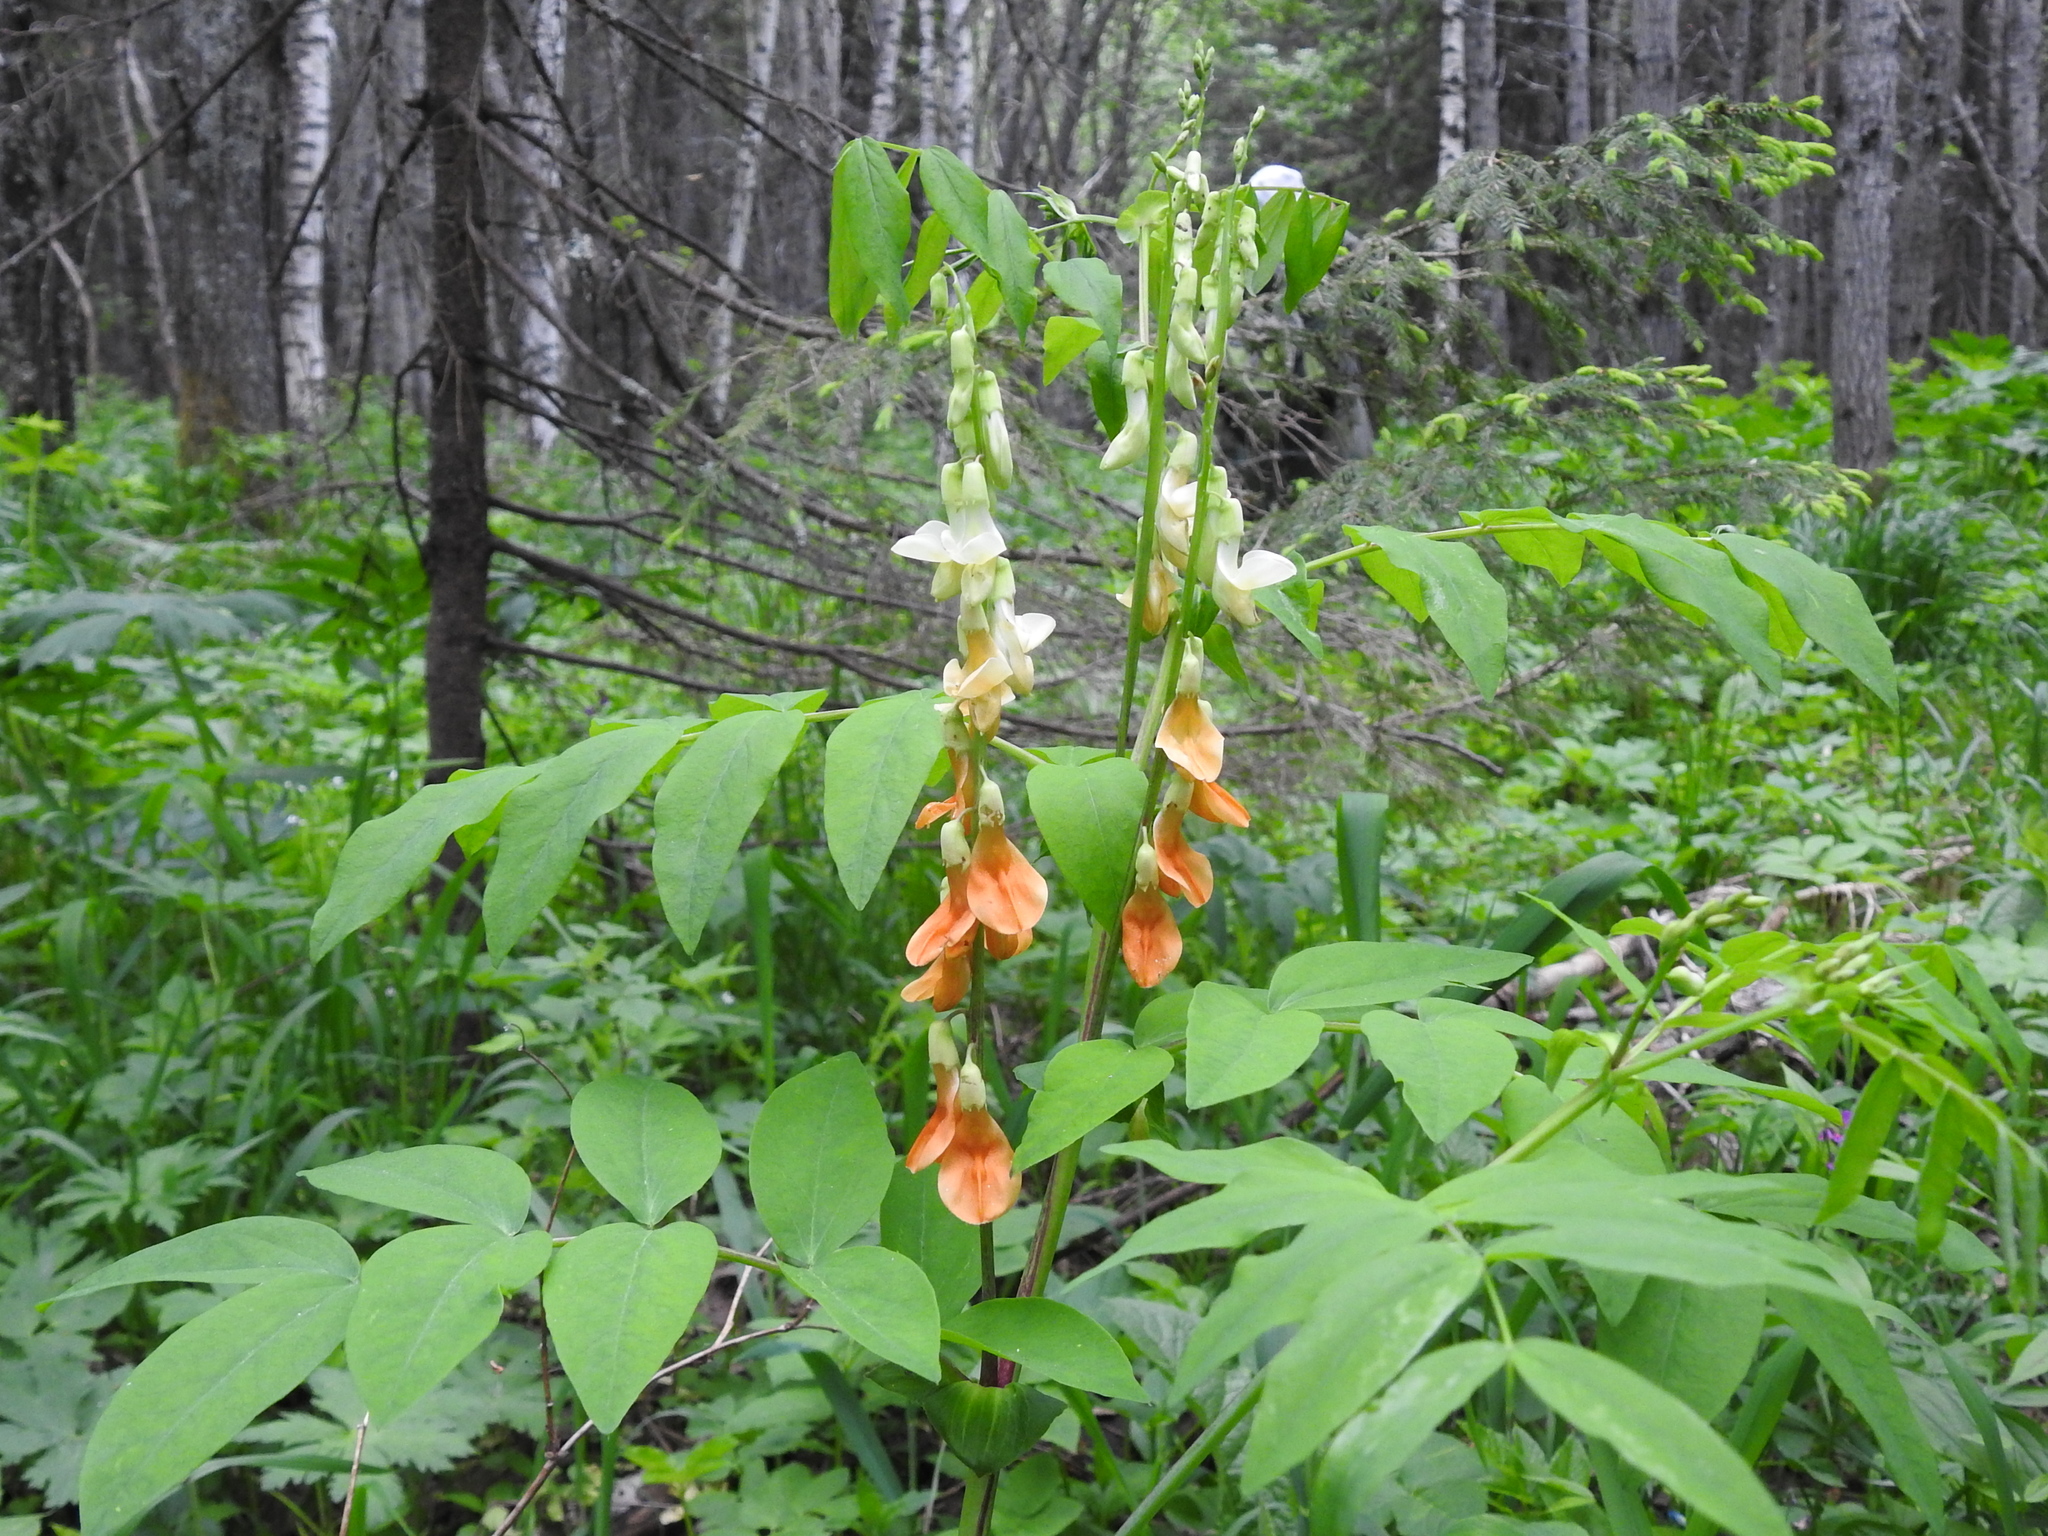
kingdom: Plantae
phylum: Tracheophyta
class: Magnoliopsida
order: Fabales
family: Fabaceae
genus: Lathyrus
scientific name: Lathyrus gmelinii
